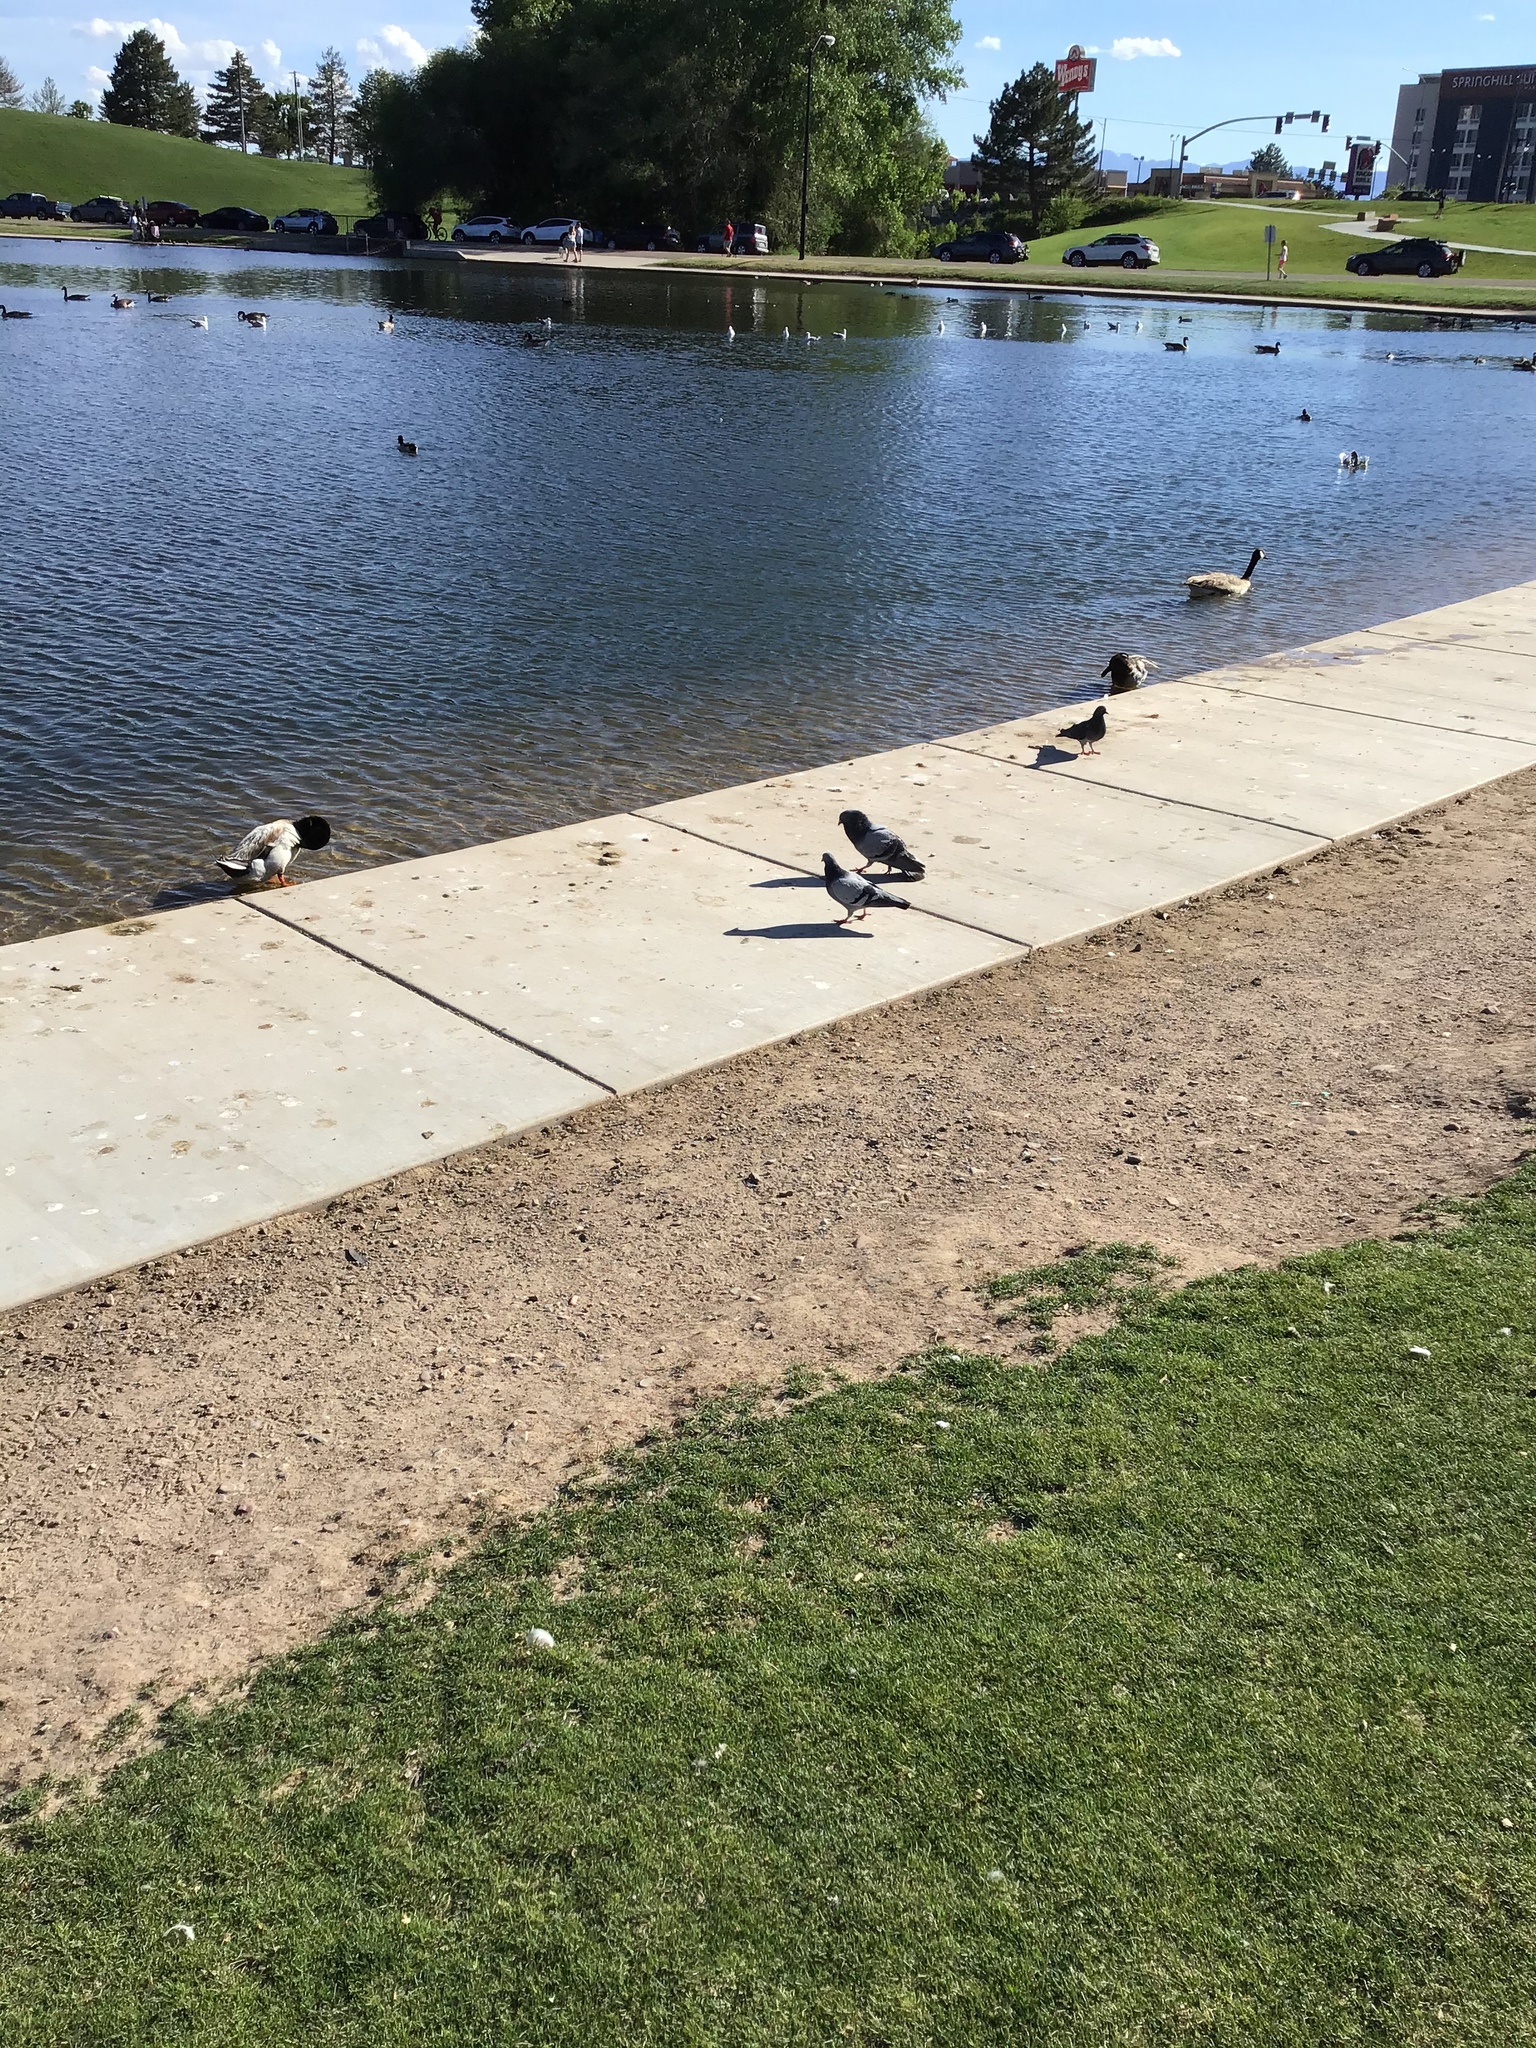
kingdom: Animalia
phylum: Chordata
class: Aves
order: Columbiformes
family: Columbidae
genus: Columba
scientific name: Columba livia
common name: Rock pigeon
